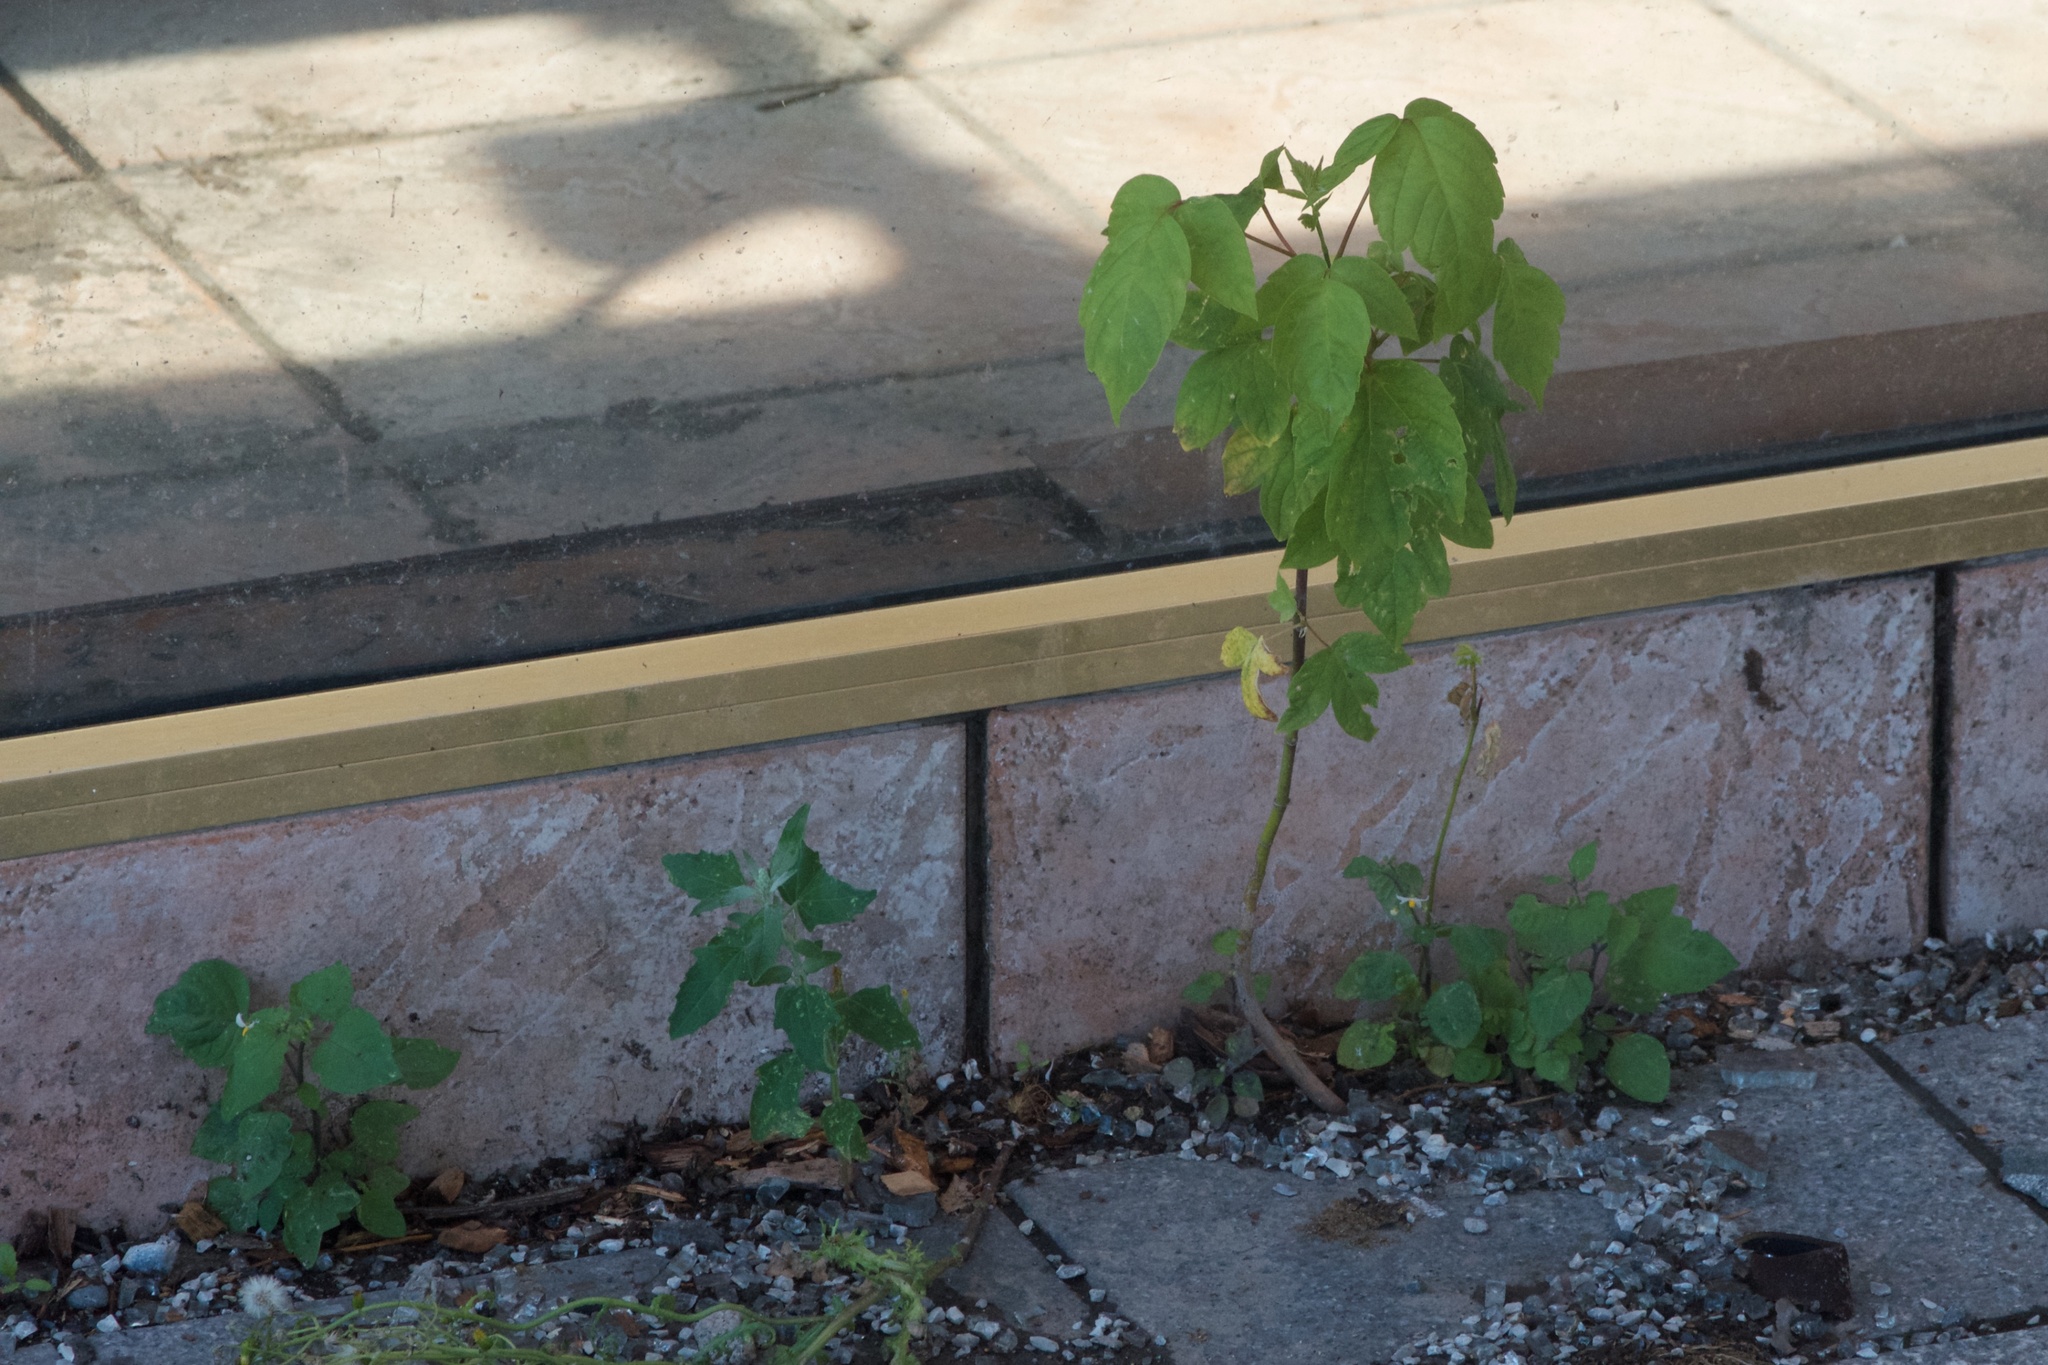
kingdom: Plantae
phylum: Tracheophyta
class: Magnoliopsida
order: Sapindales
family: Sapindaceae
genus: Acer
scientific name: Acer negundo
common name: Ashleaf maple
